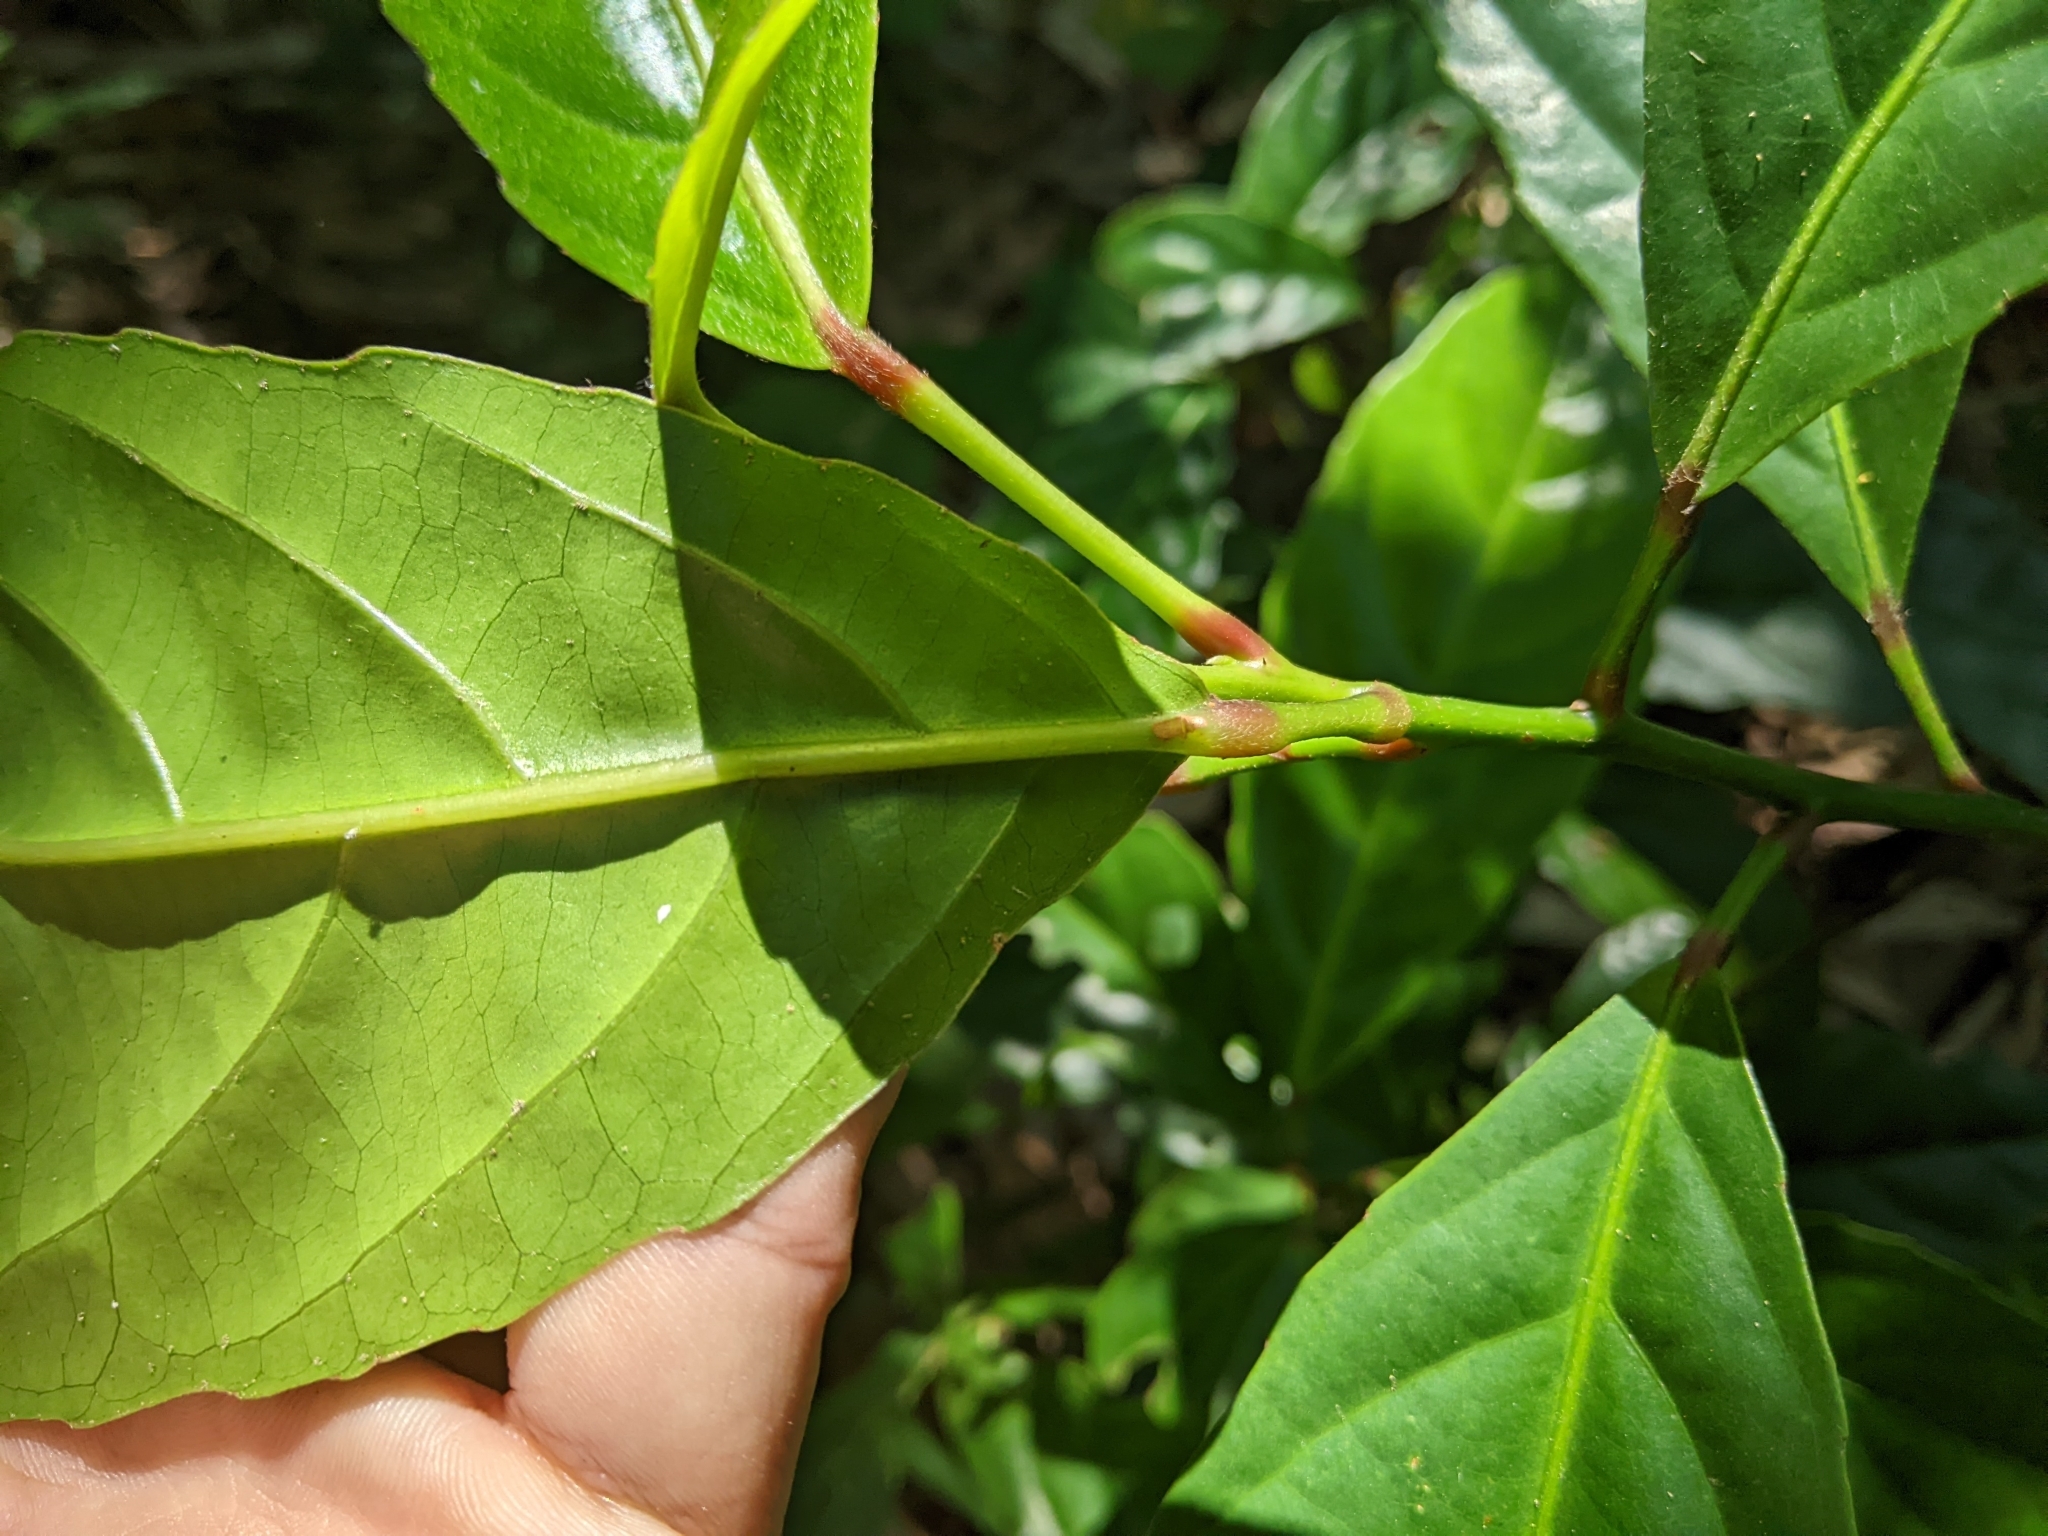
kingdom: Plantae
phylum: Tracheophyta
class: Magnoliopsida
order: Oxalidales
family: Elaeocarpaceae
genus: Elaeocarpus
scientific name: Elaeocarpus serratus
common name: Ceylon-olive
